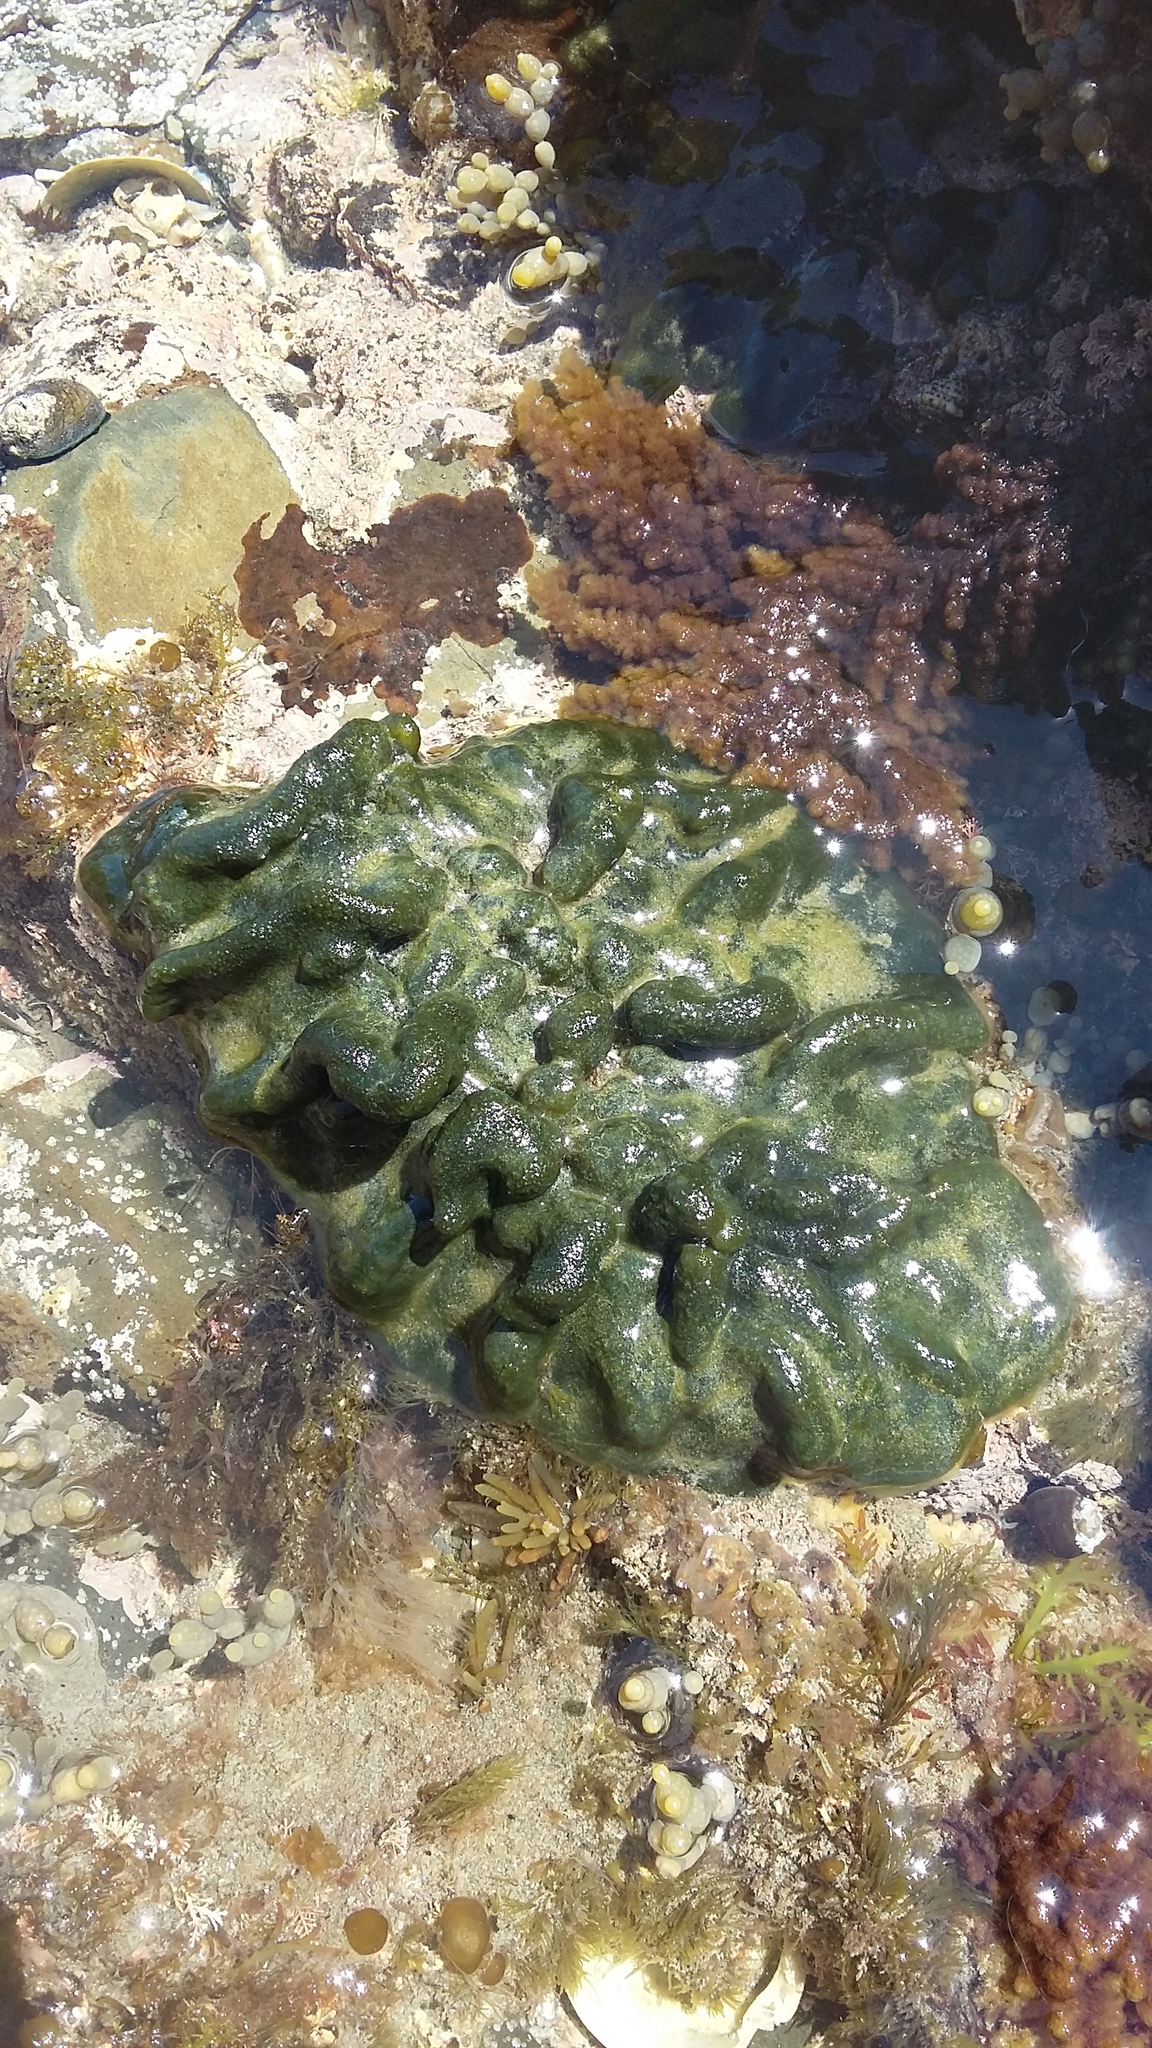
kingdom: Plantae
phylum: Chlorophyta
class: Ulvophyceae
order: Bryopsidales
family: Codiaceae
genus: Codium
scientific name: Codium convolutum
